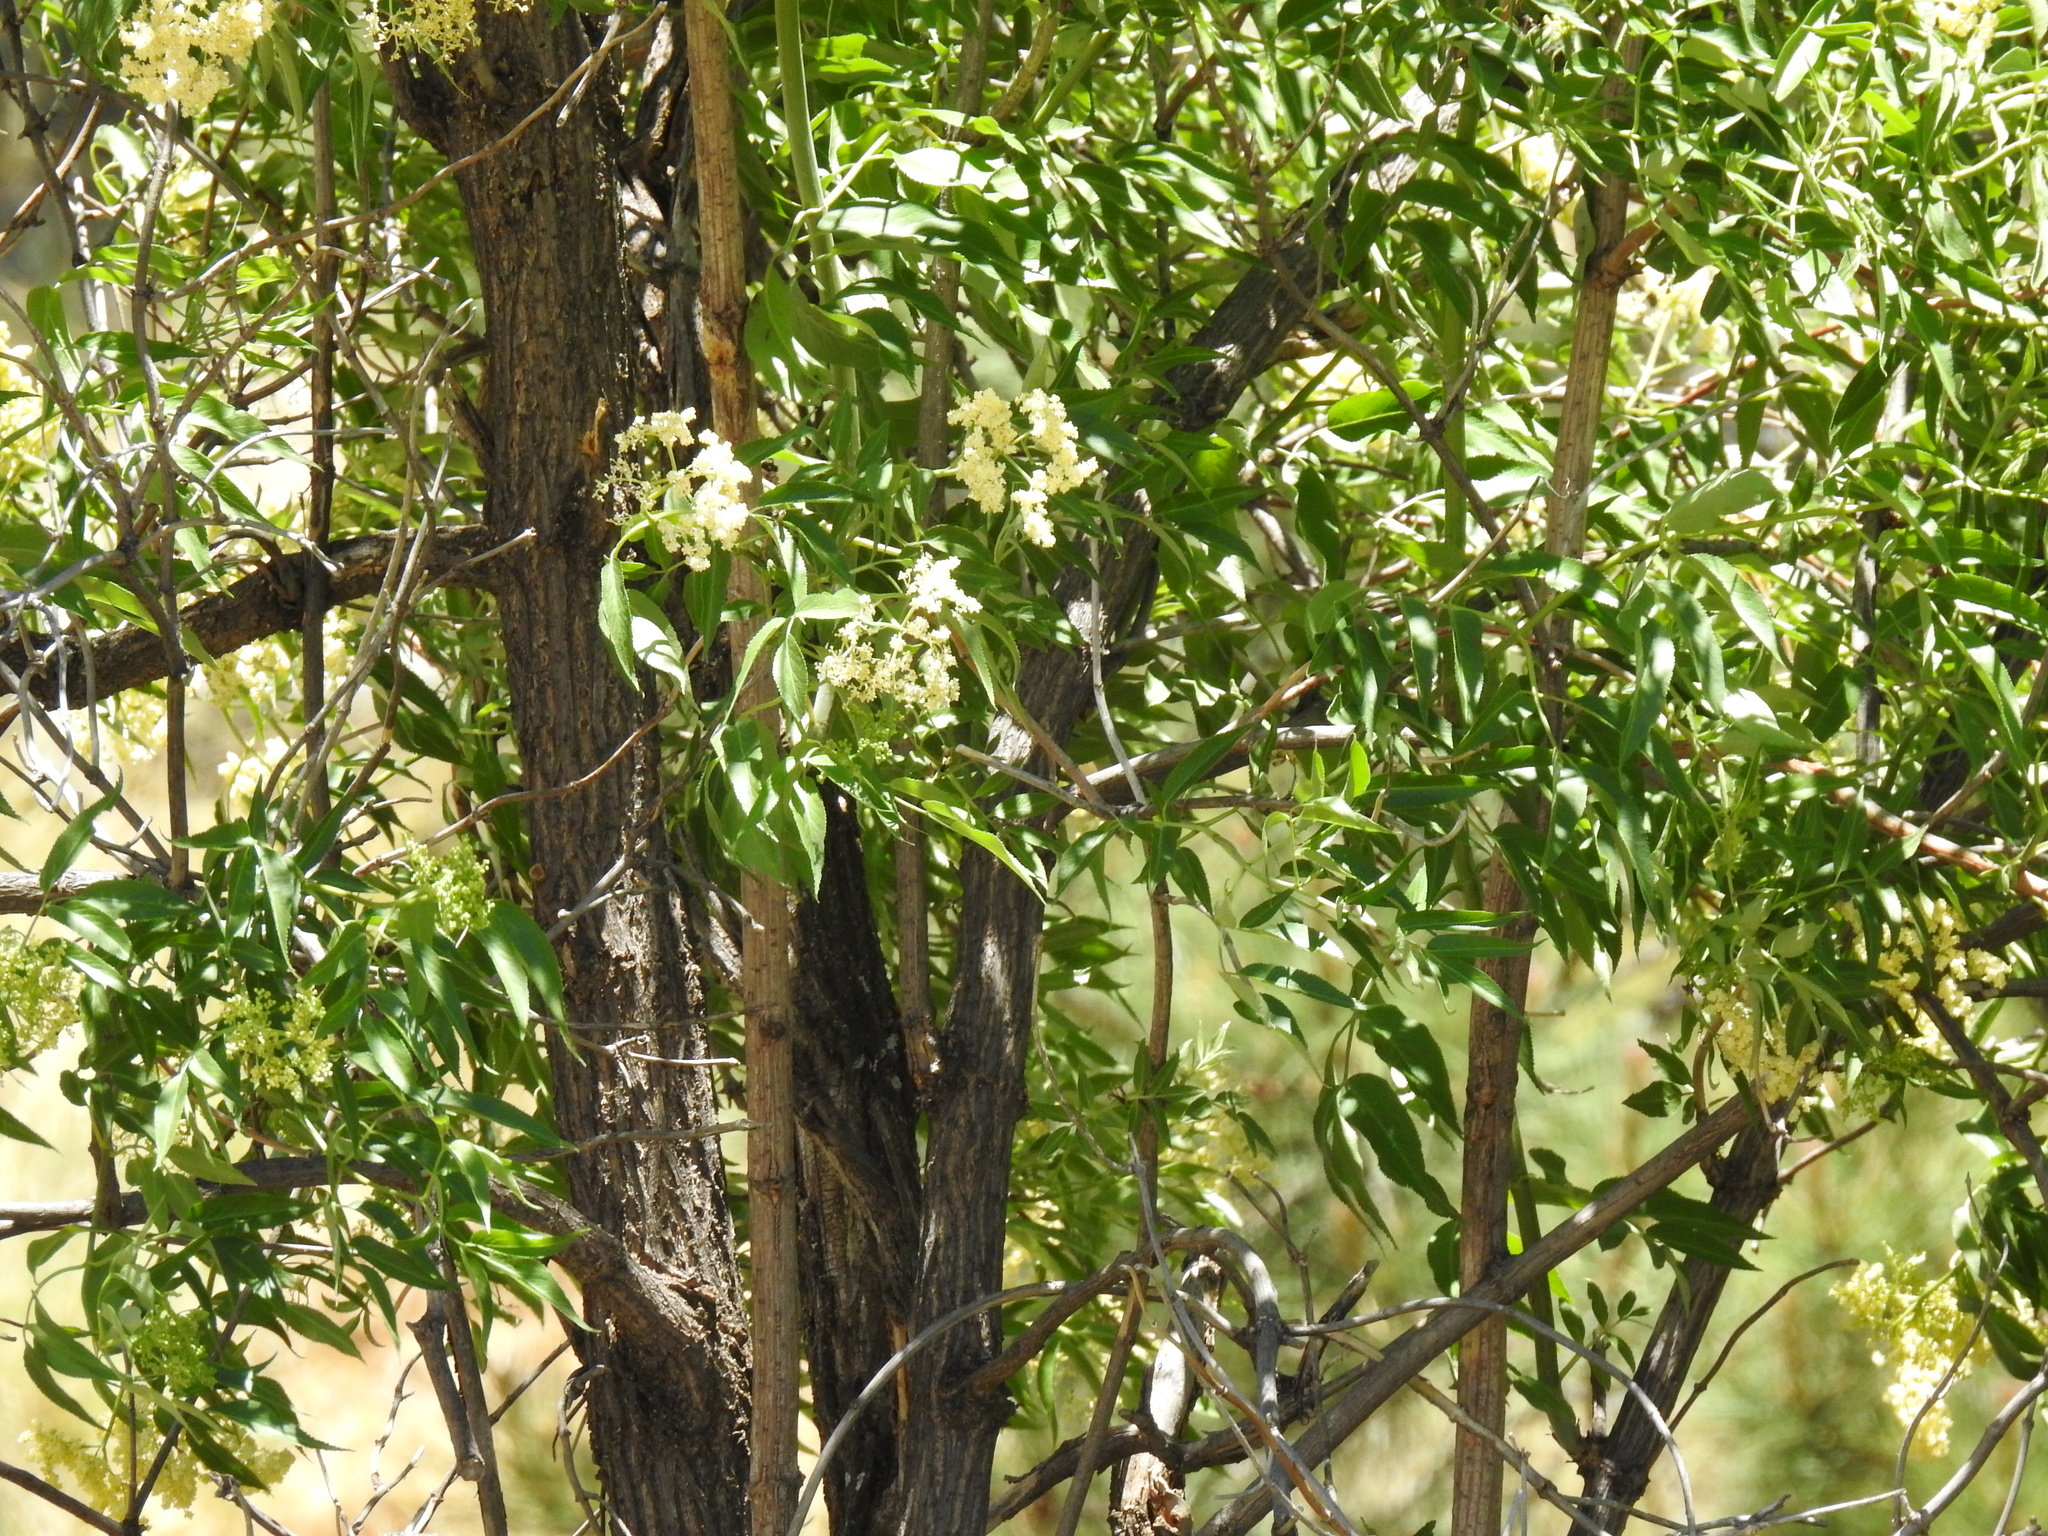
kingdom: Plantae
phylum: Tracheophyta
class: Magnoliopsida
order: Dipsacales
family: Viburnaceae
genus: Sambucus
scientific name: Sambucus cerulea
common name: Blue elder
